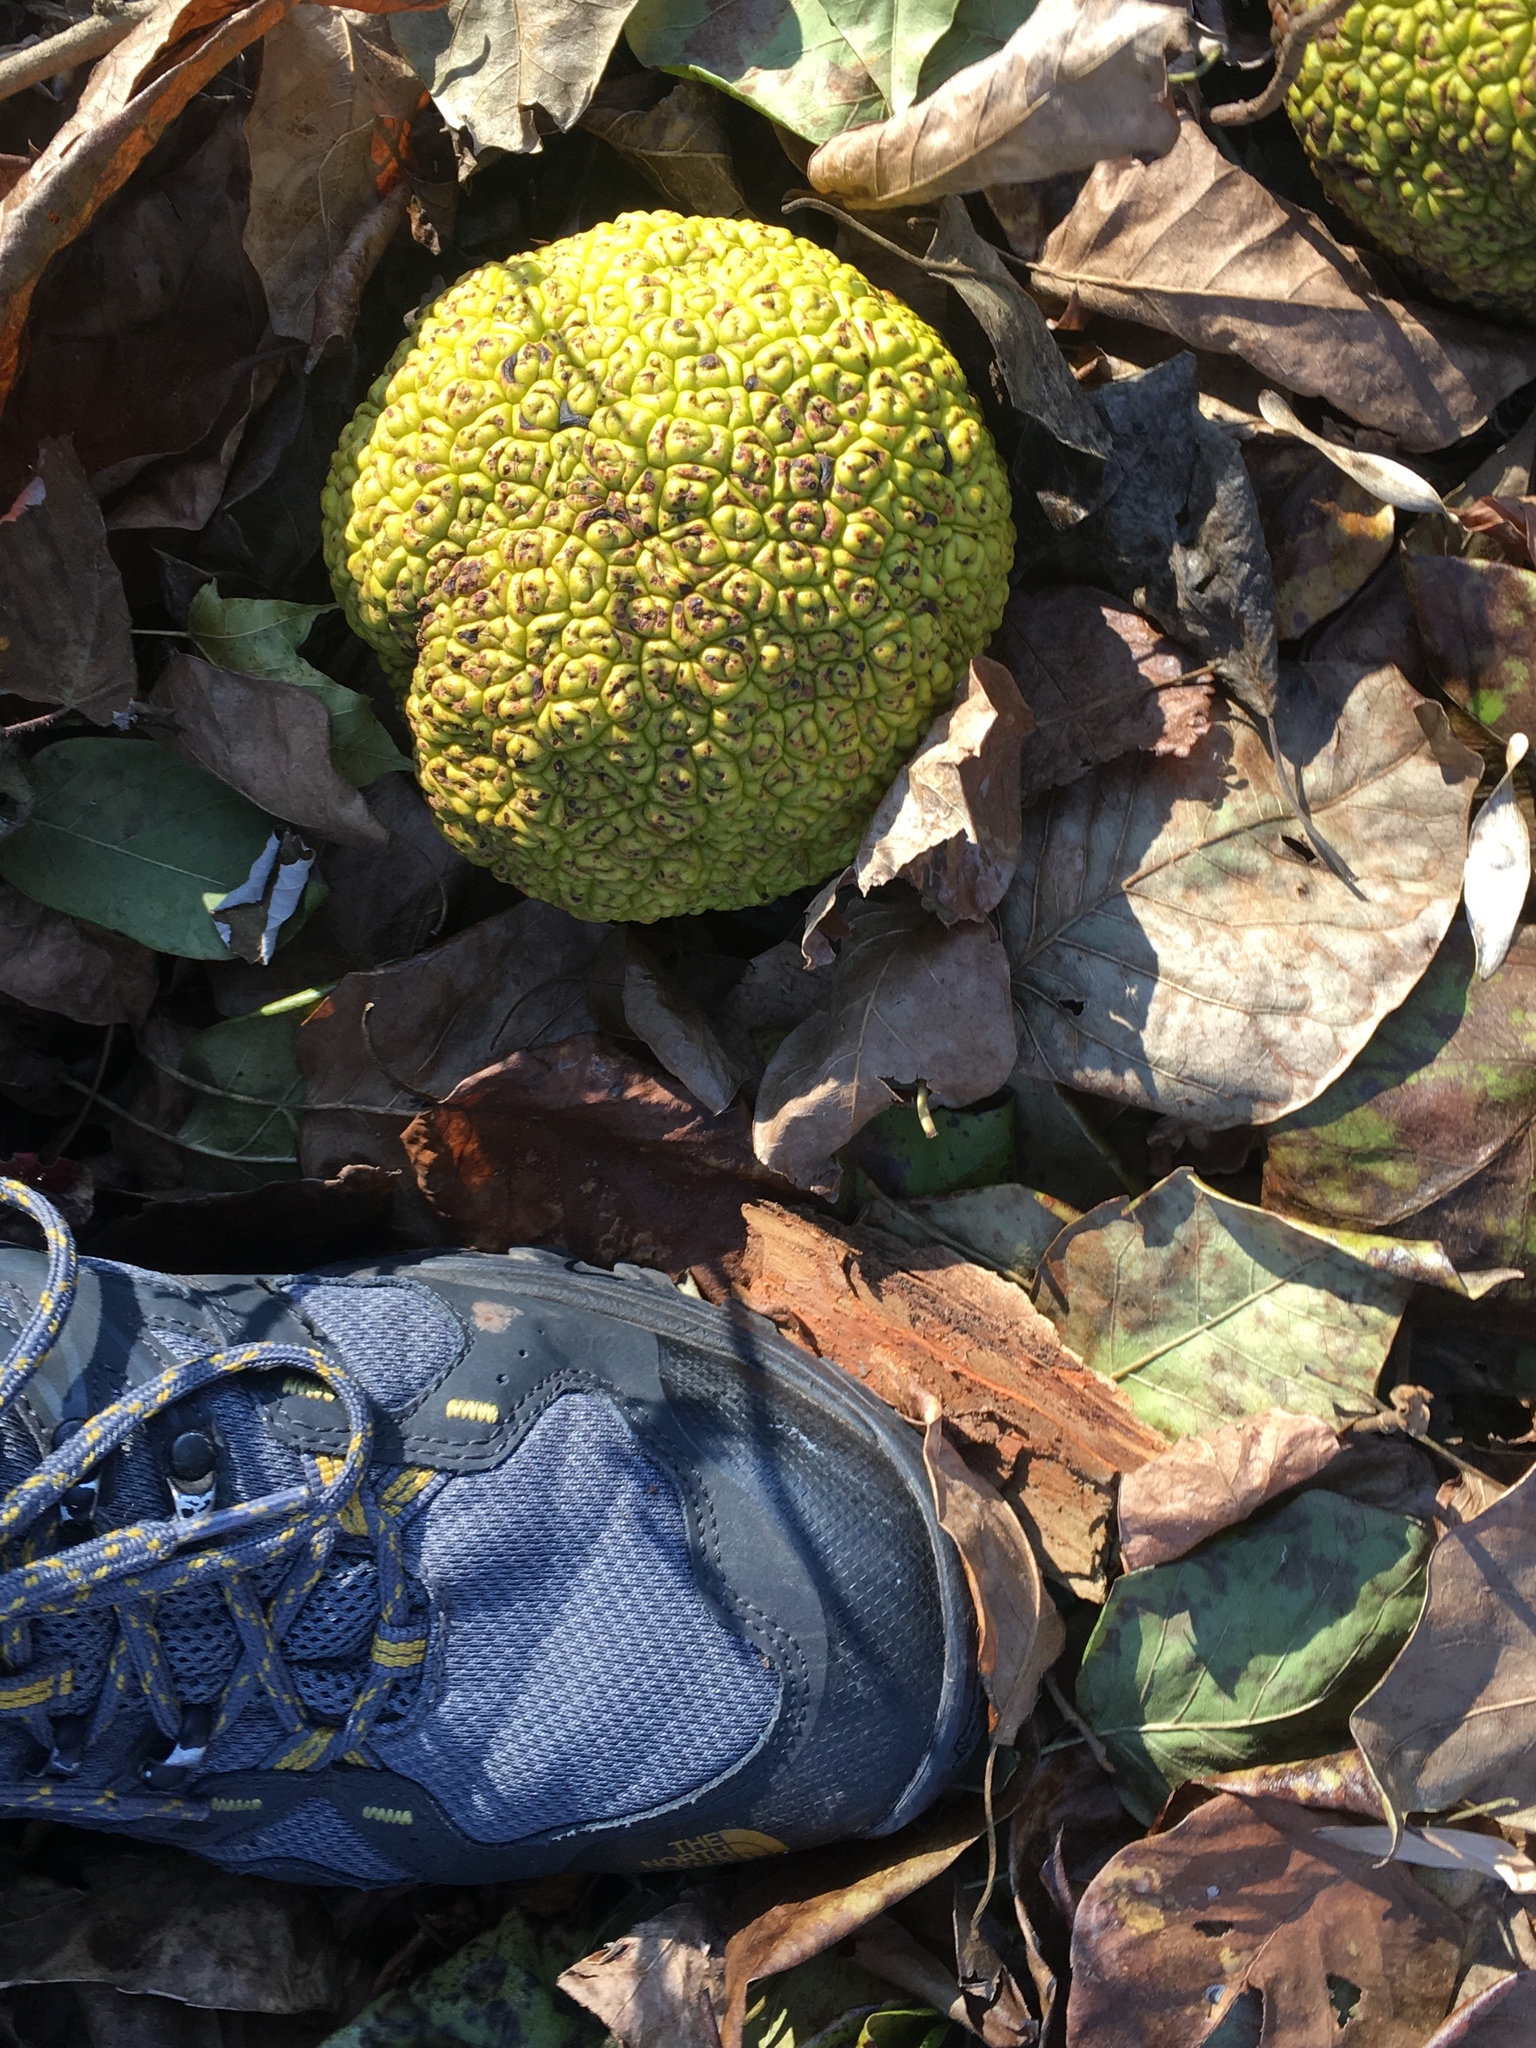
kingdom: Plantae
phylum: Tracheophyta
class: Magnoliopsida
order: Rosales
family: Moraceae
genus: Maclura
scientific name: Maclura pomifera
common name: Osage-orange
